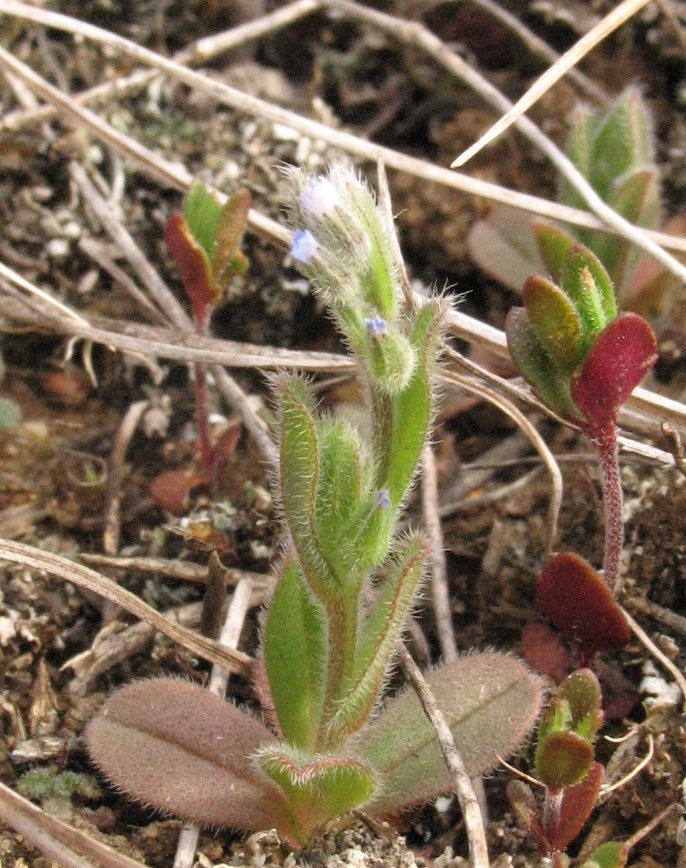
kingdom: Plantae
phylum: Tracheophyta
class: Magnoliopsida
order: Boraginales
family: Boraginaceae
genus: Myosotis
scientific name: Myosotis stricta
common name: Strict forget-me-not
